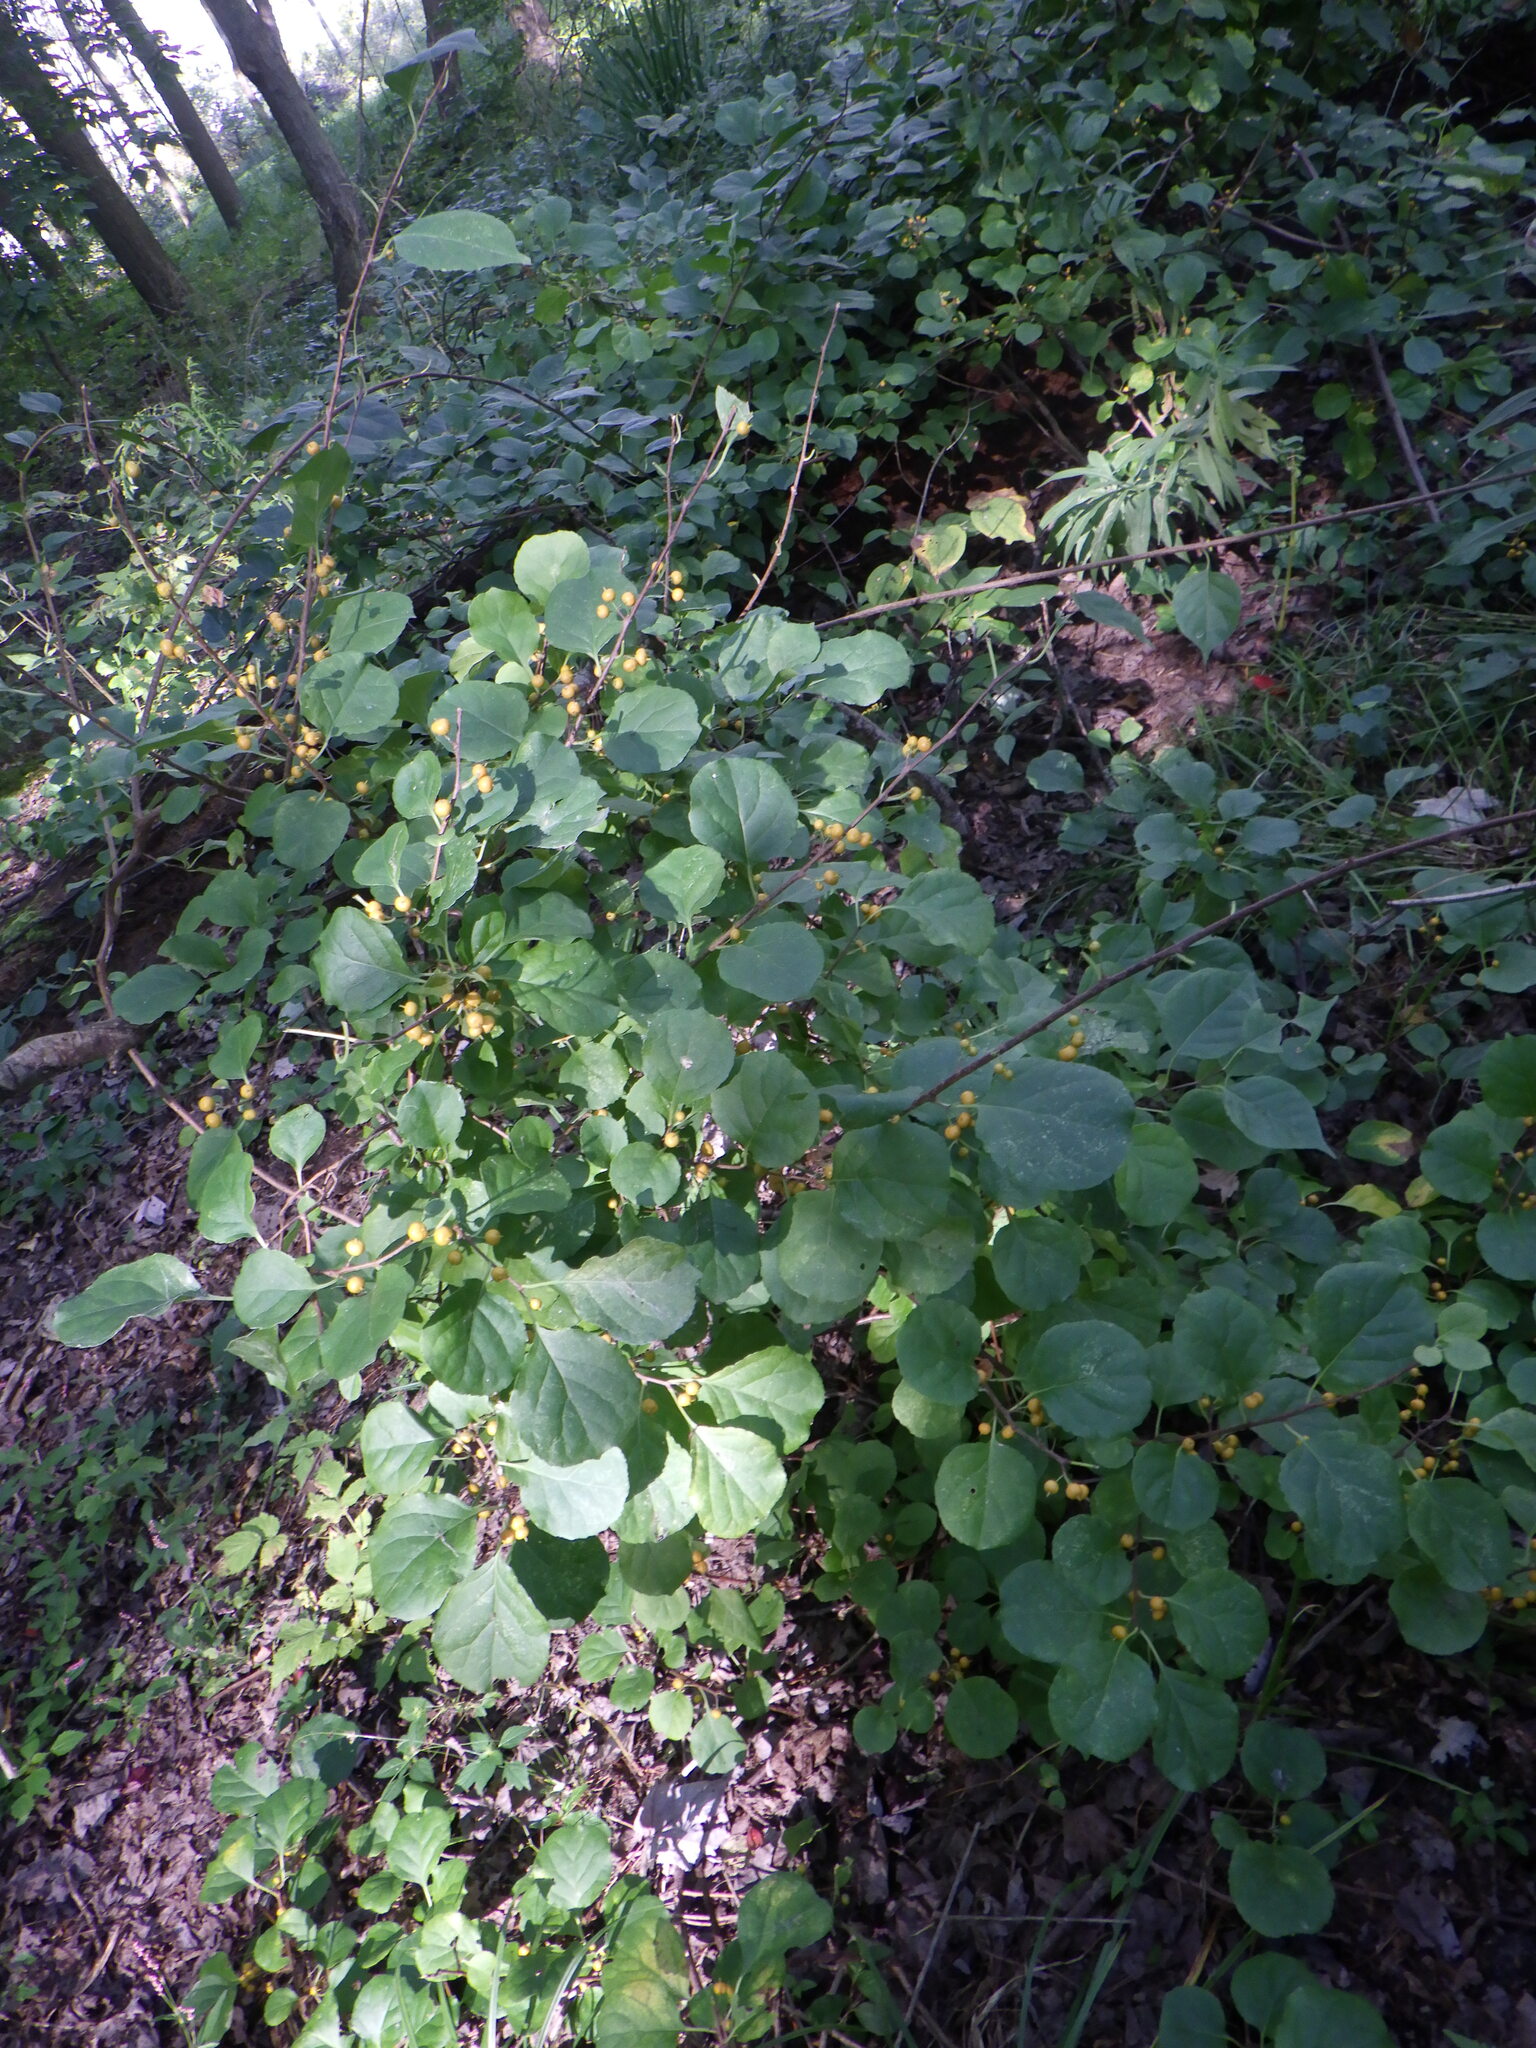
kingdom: Plantae
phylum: Tracheophyta
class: Magnoliopsida
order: Celastrales
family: Celastraceae
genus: Celastrus
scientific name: Celastrus orbiculatus
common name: Oriental bittersweet
